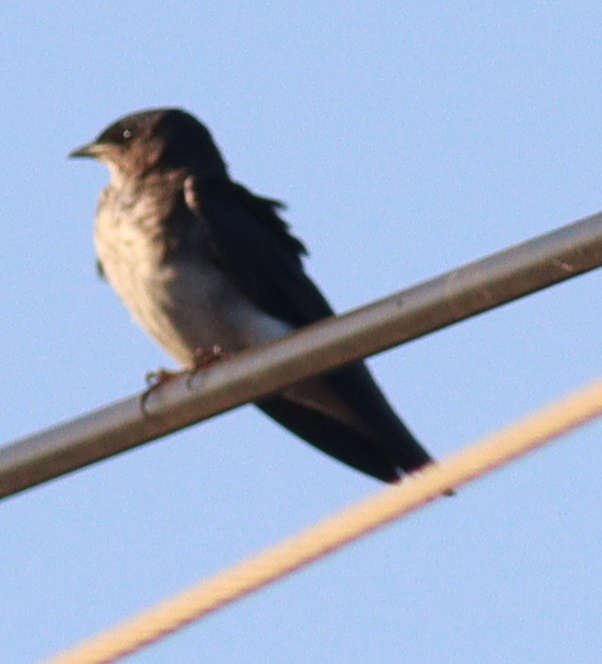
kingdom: Animalia
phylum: Chordata
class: Aves
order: Passeriformes
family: Hirundinidae
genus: Progne
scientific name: Progne chalybea
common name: Grey-breasted martin
